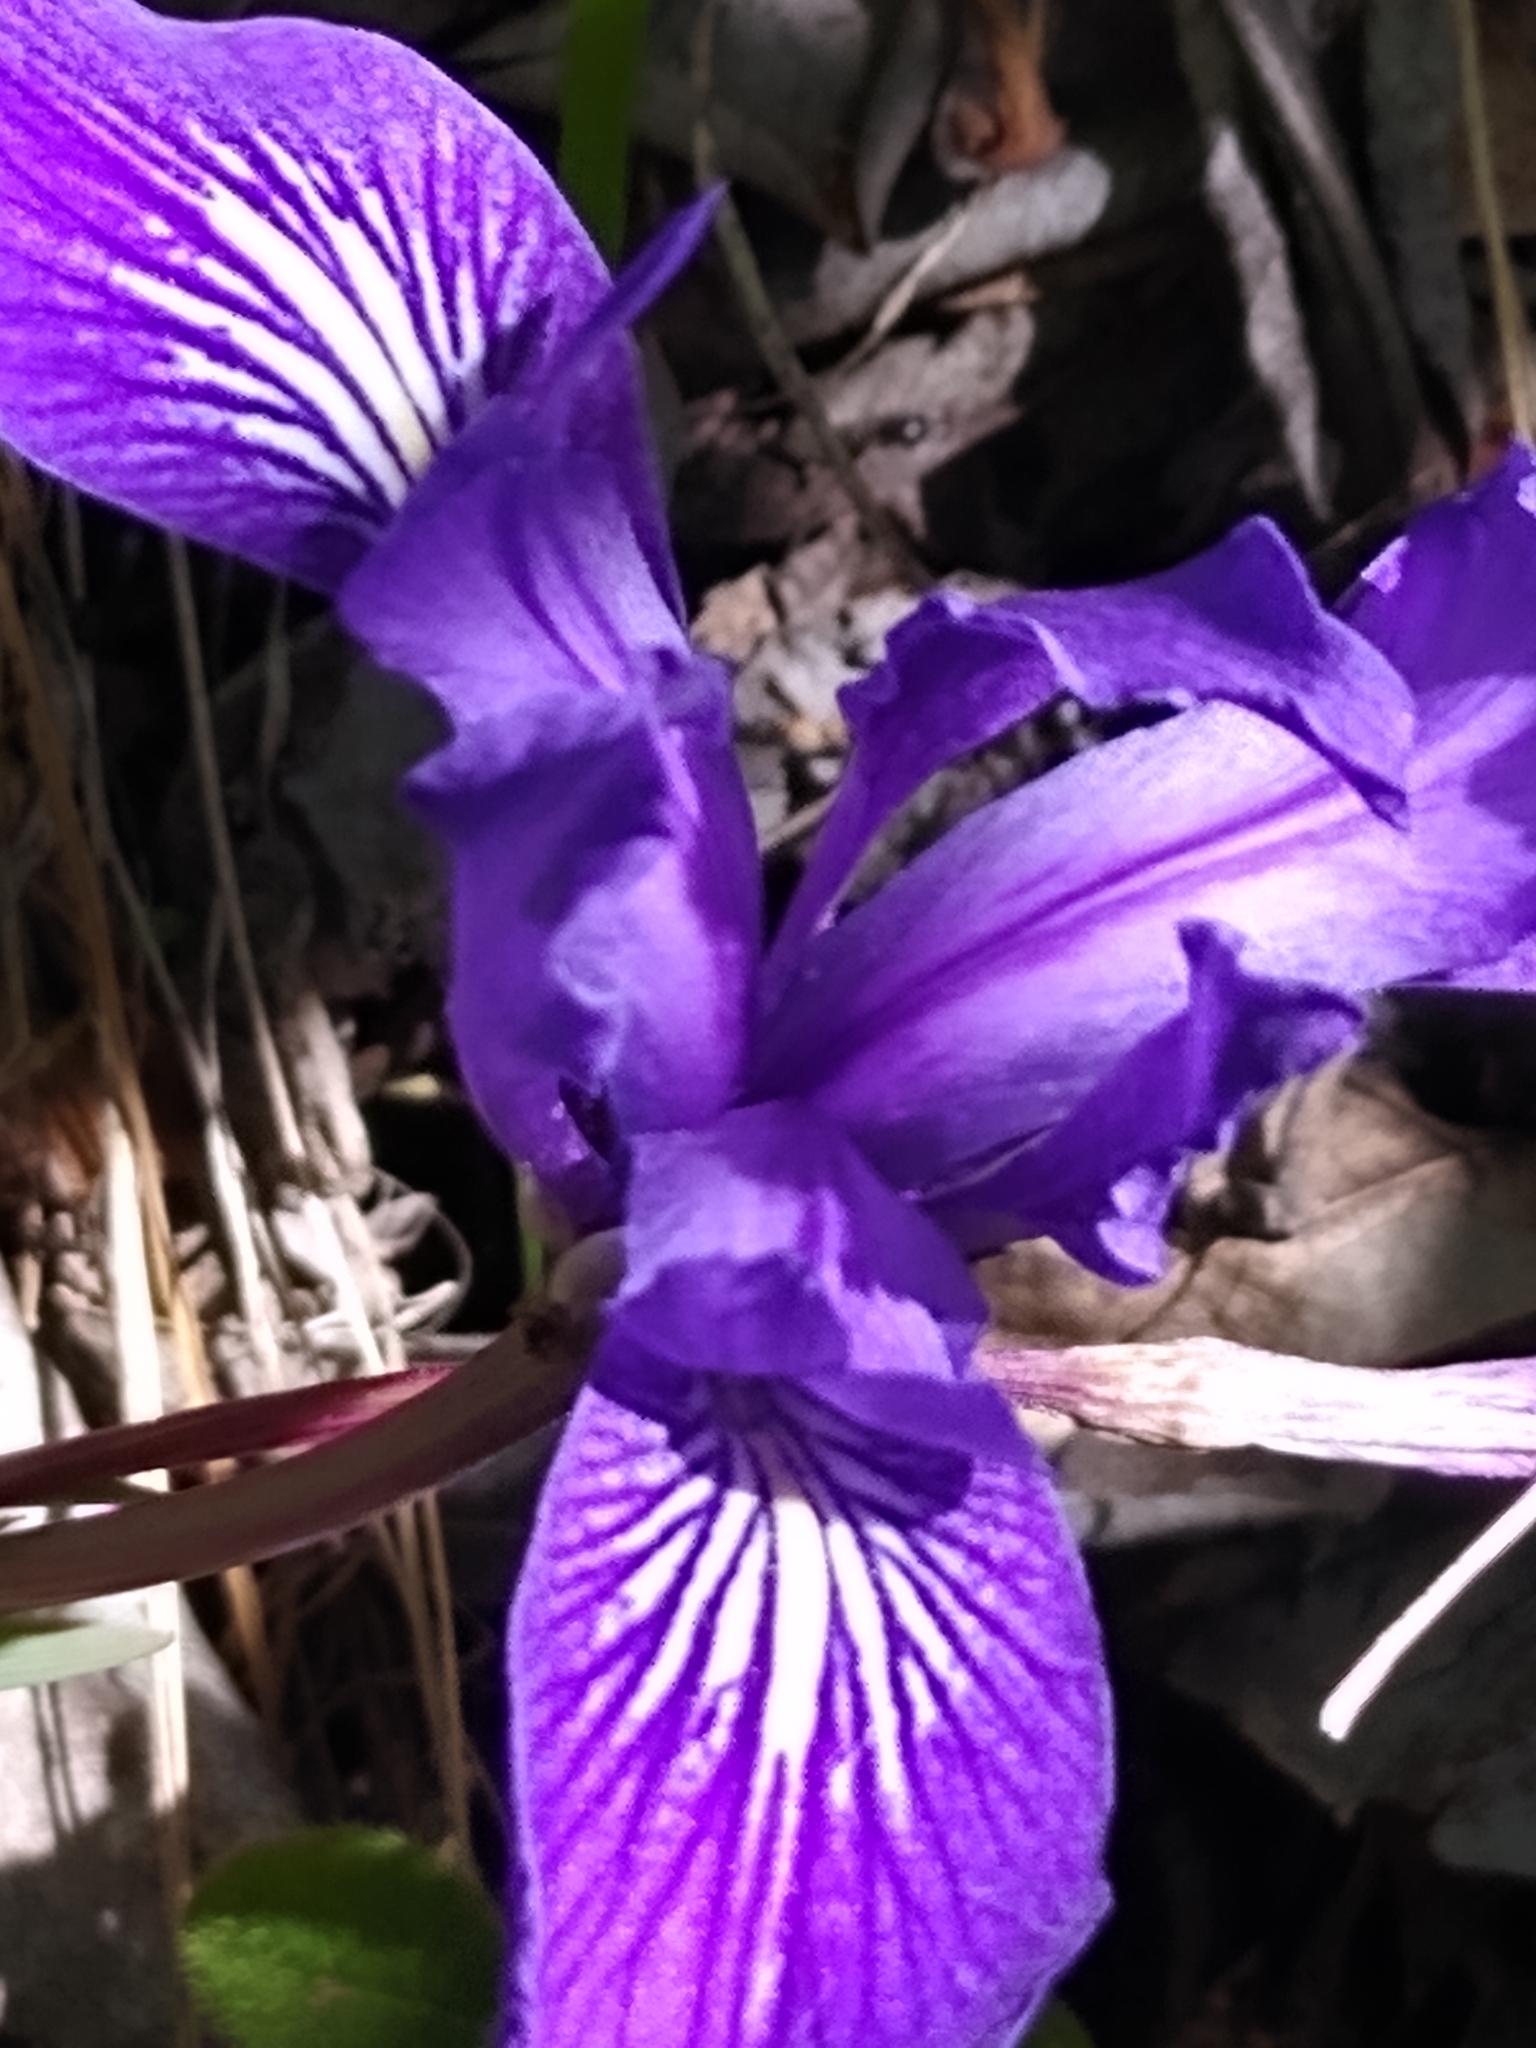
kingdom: Plantae
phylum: Tracheophyta
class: Liliopsida
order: Asparagales
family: Iridaceae
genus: Iris
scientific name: Iris douglasiana
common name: Marin iris
